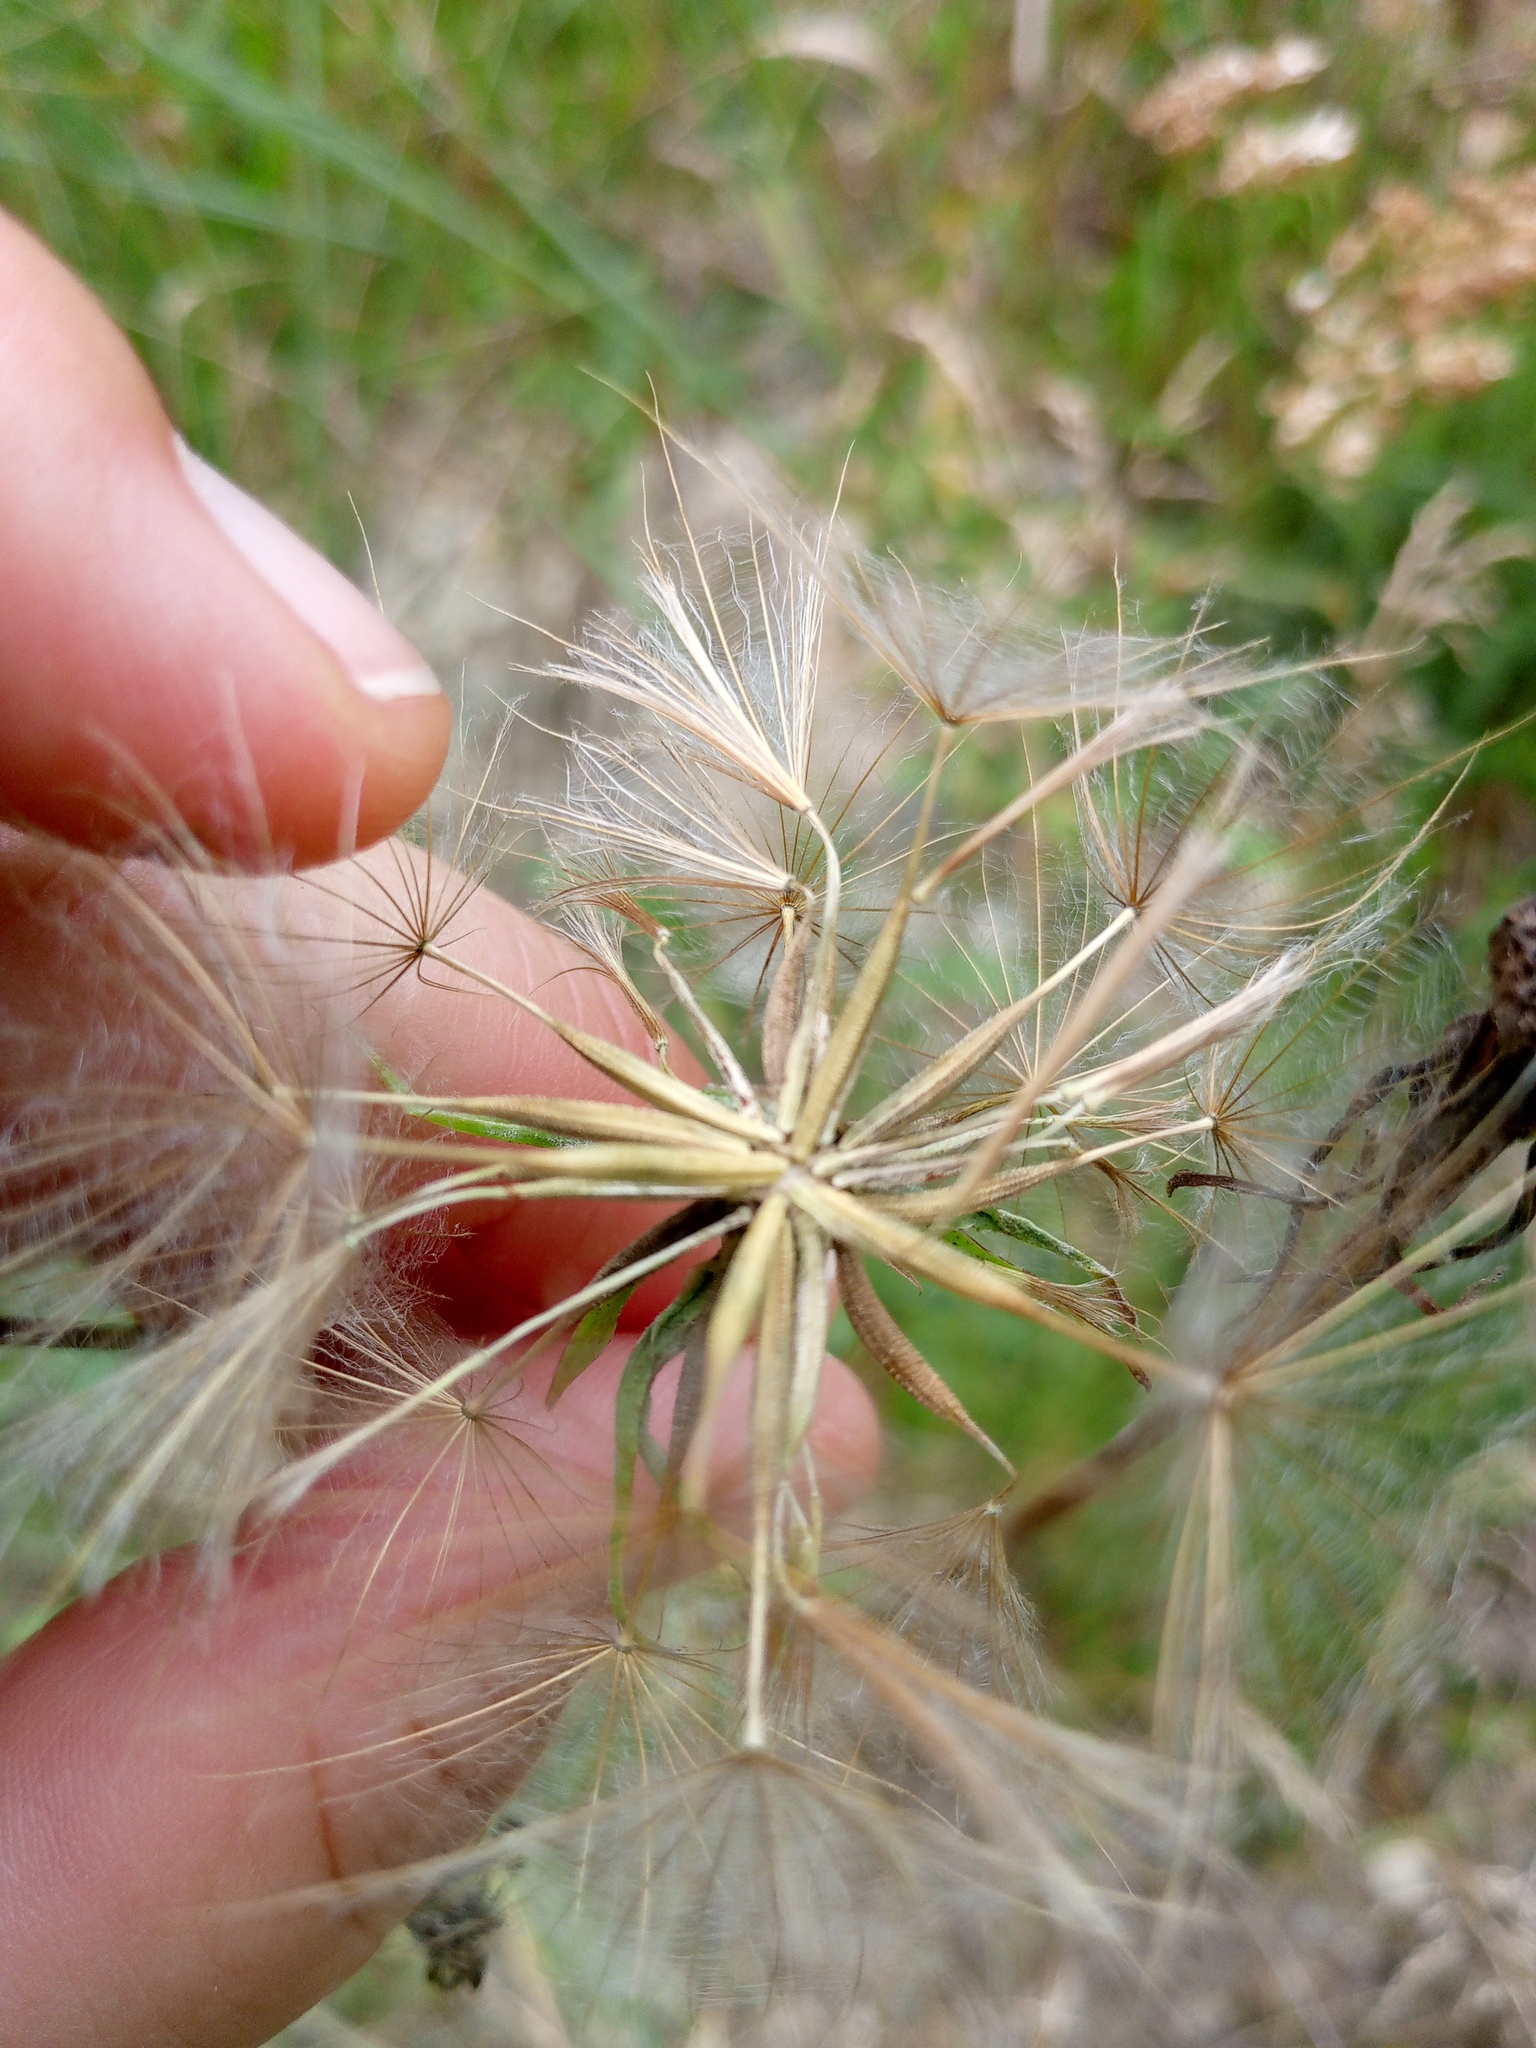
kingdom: Plantae
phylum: Tracheophyta
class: Magnoliopsida
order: Asterales
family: Asteraceae
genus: Tragopogon
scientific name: Tragopogon orientalis
